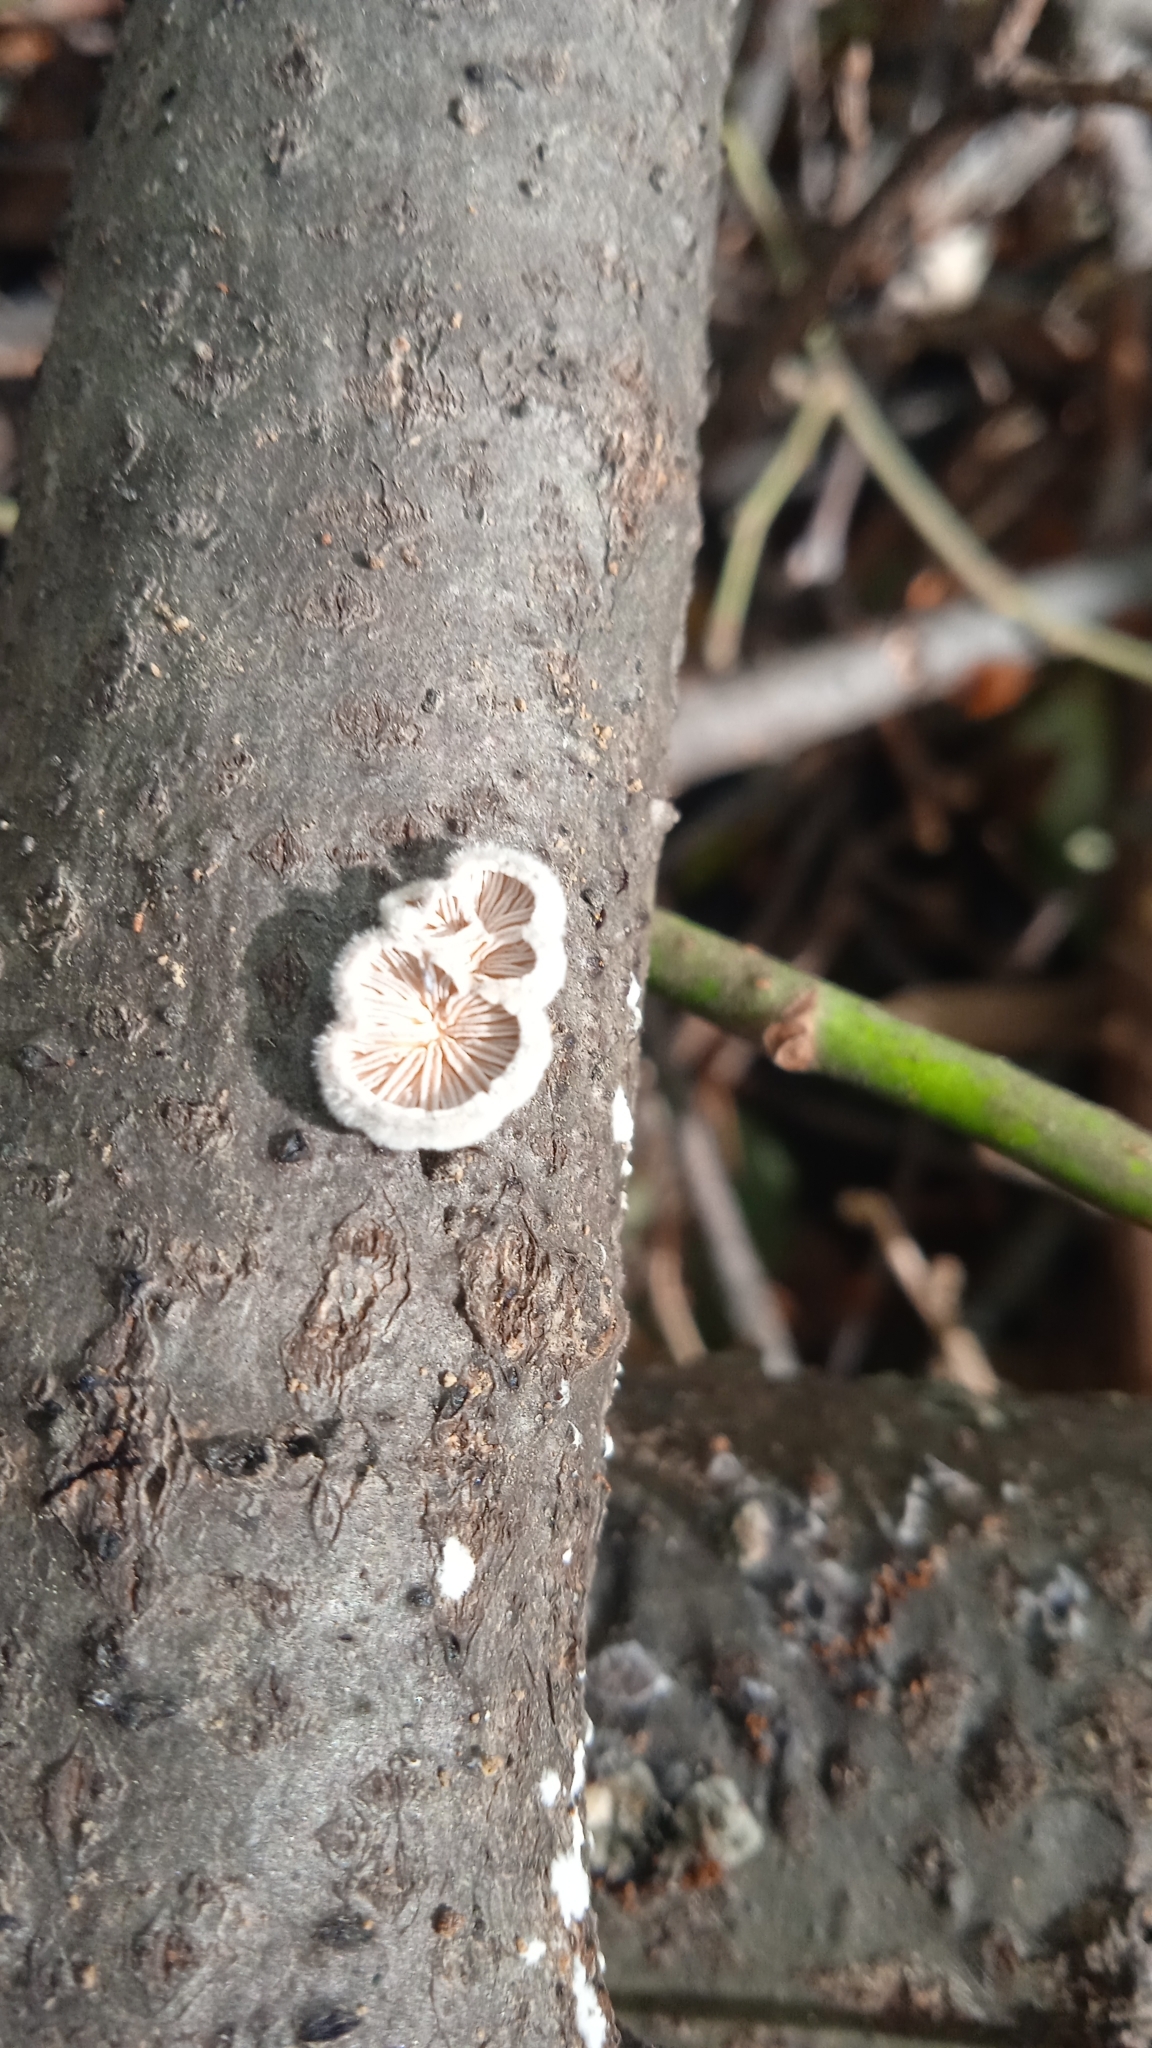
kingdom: Fungi
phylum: Basidiomycota
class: Agaricomycetes
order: Agaricales
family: Schizophyllaceae
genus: Schizophyllum
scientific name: Schizophyllum commune
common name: Common porecrust
